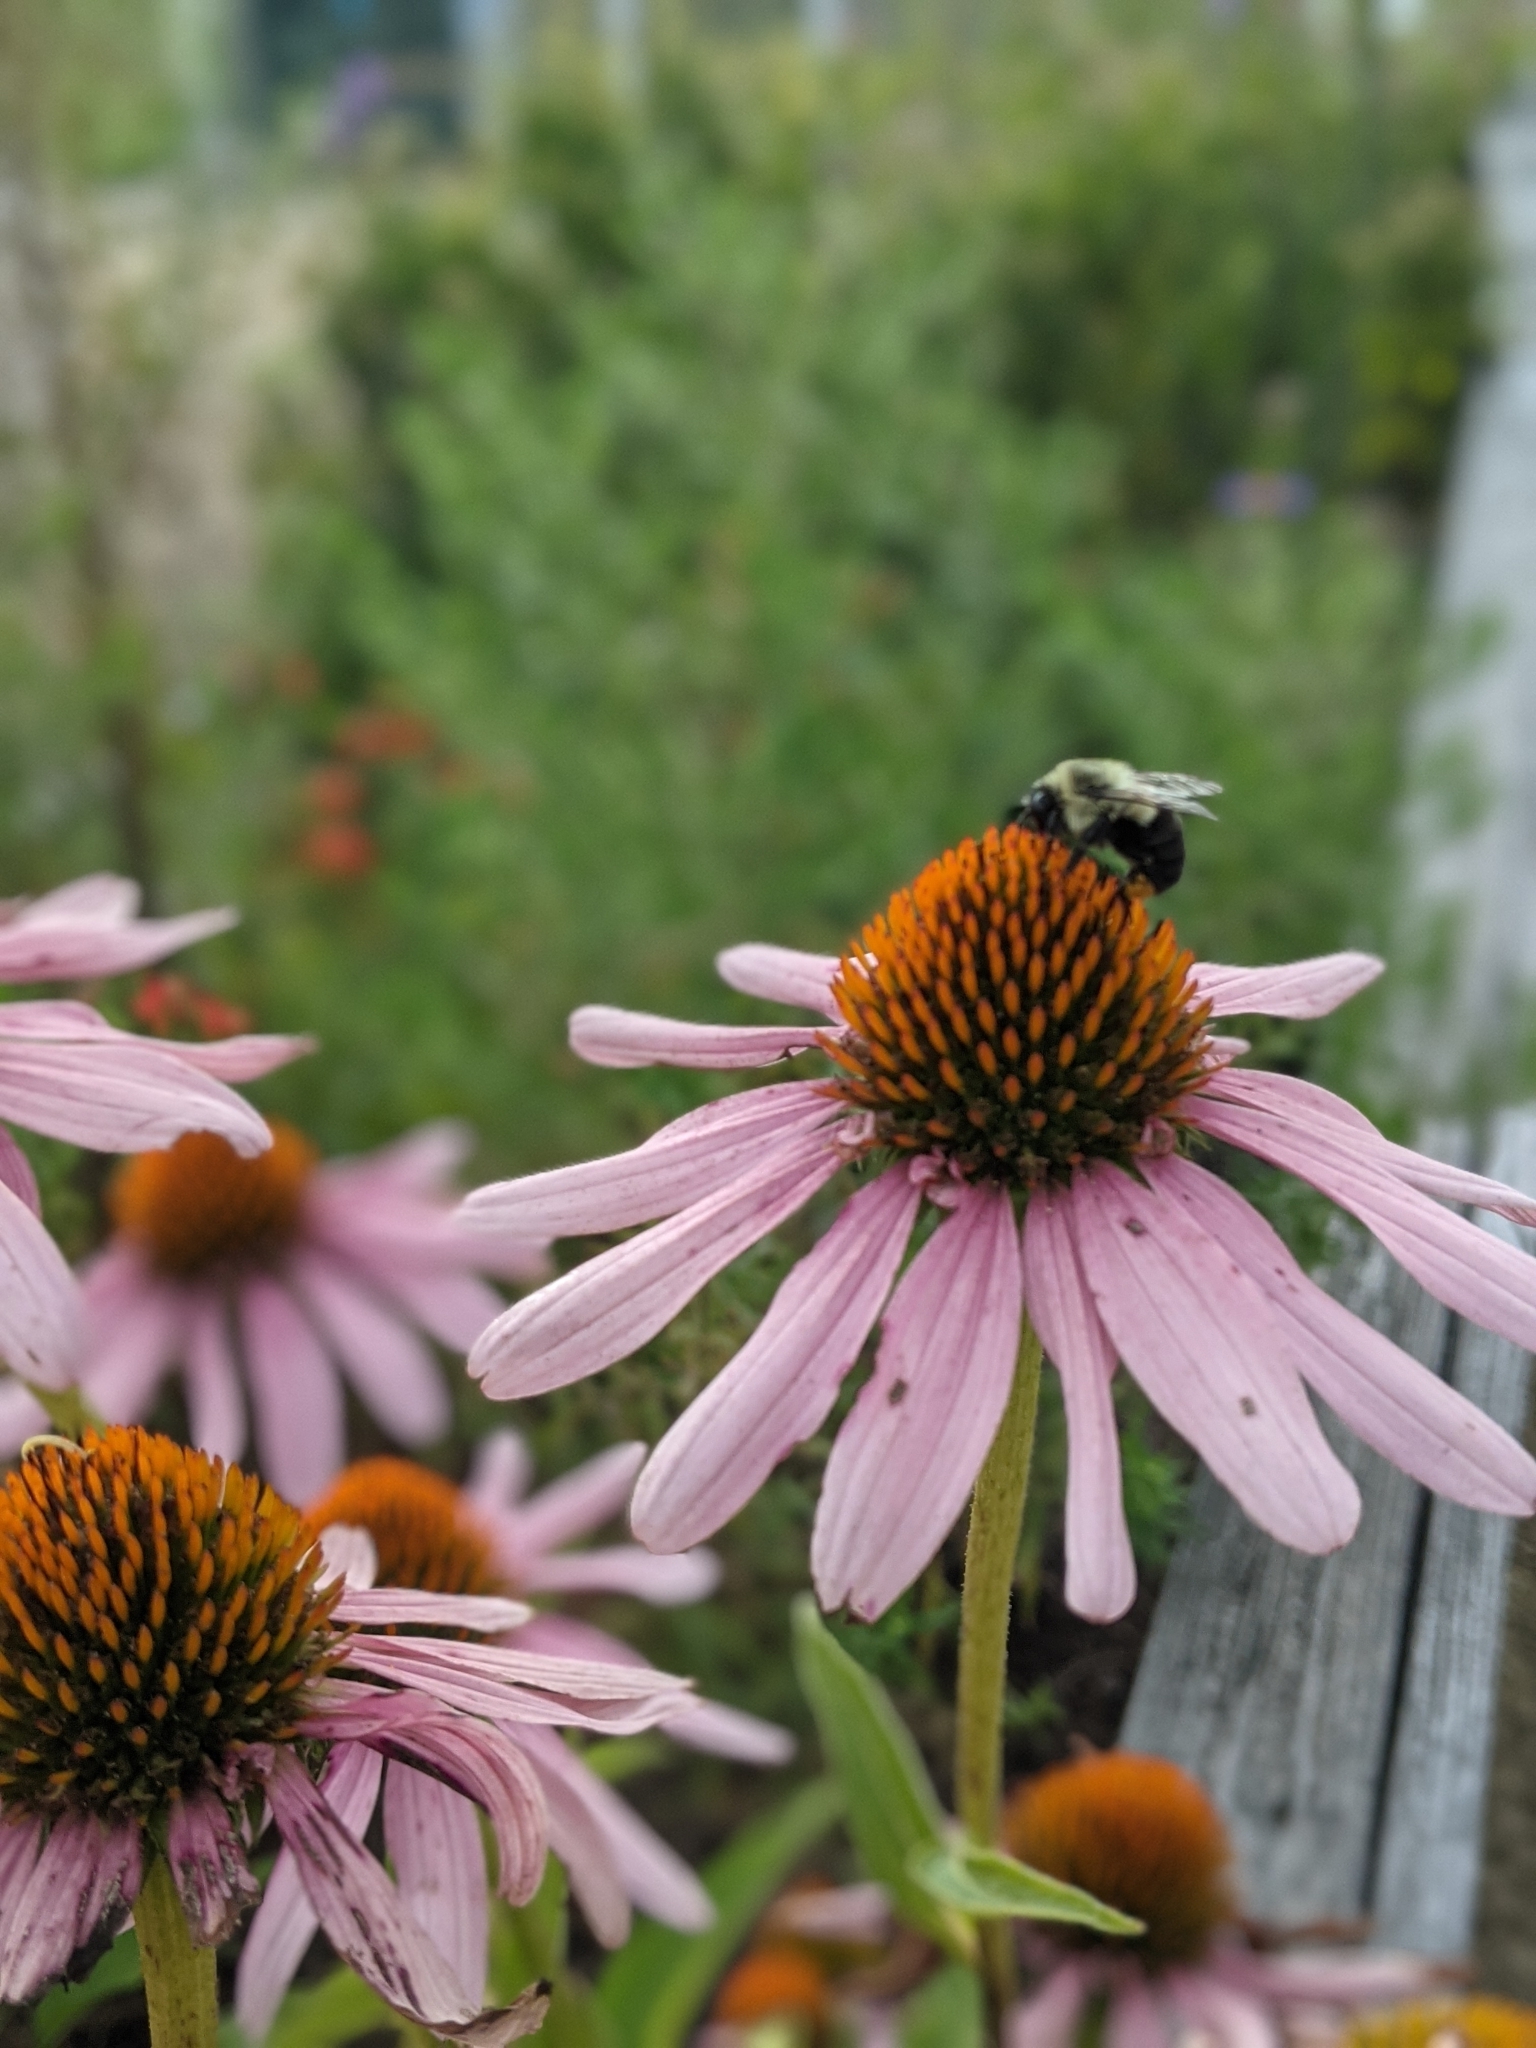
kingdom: Animalia
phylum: Arthropoda
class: Insecta
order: Hymenoptera
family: Apidae
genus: Bombus
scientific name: Bombus impatiens
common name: Common eastern bumble bee
